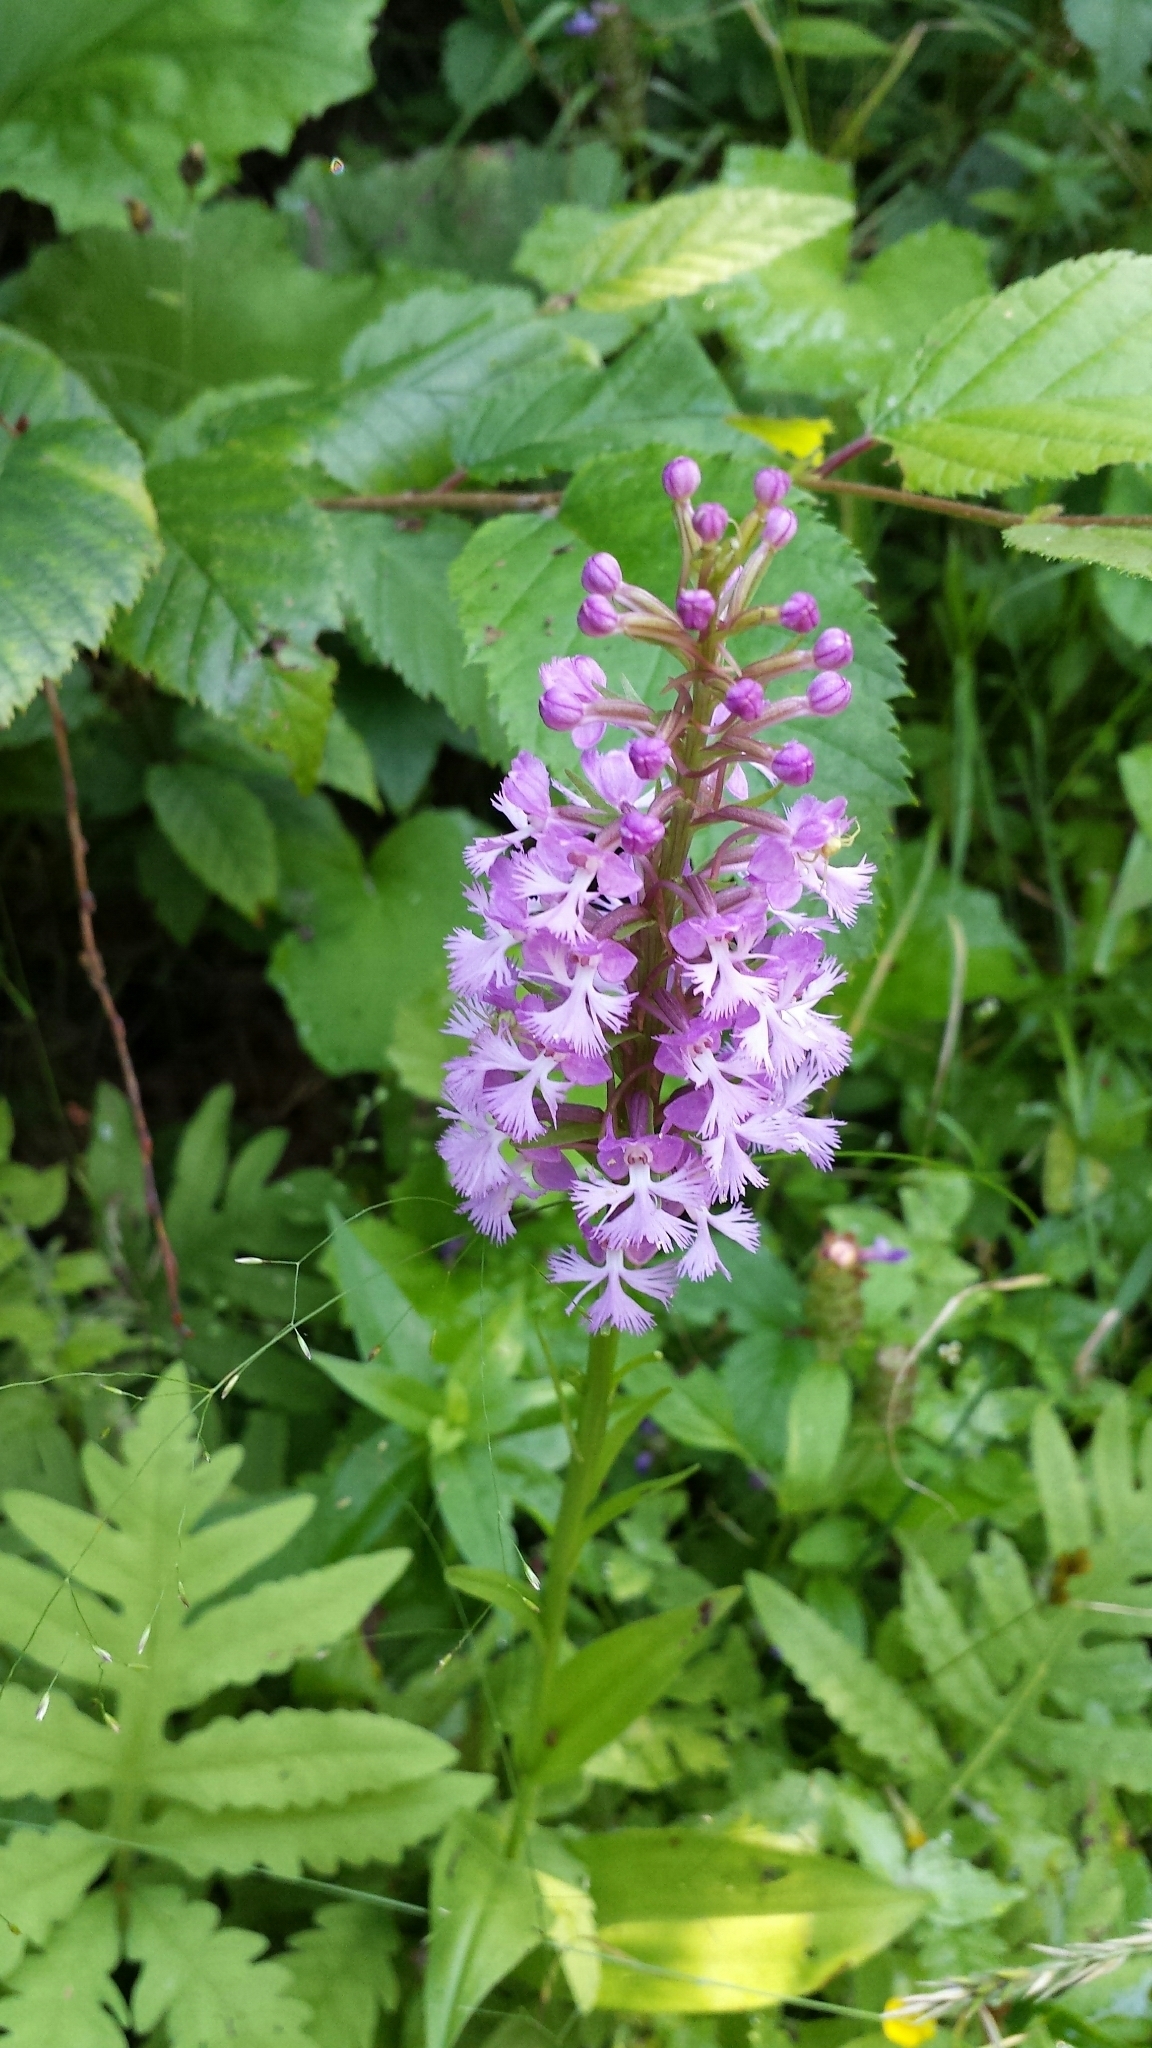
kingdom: Plantae
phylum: Tracheophyta
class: Liliopsida
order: Asparagales
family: Orchidaceae
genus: Platanthera
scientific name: Platanthera psycodes
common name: Lesser purple fringed orchid
